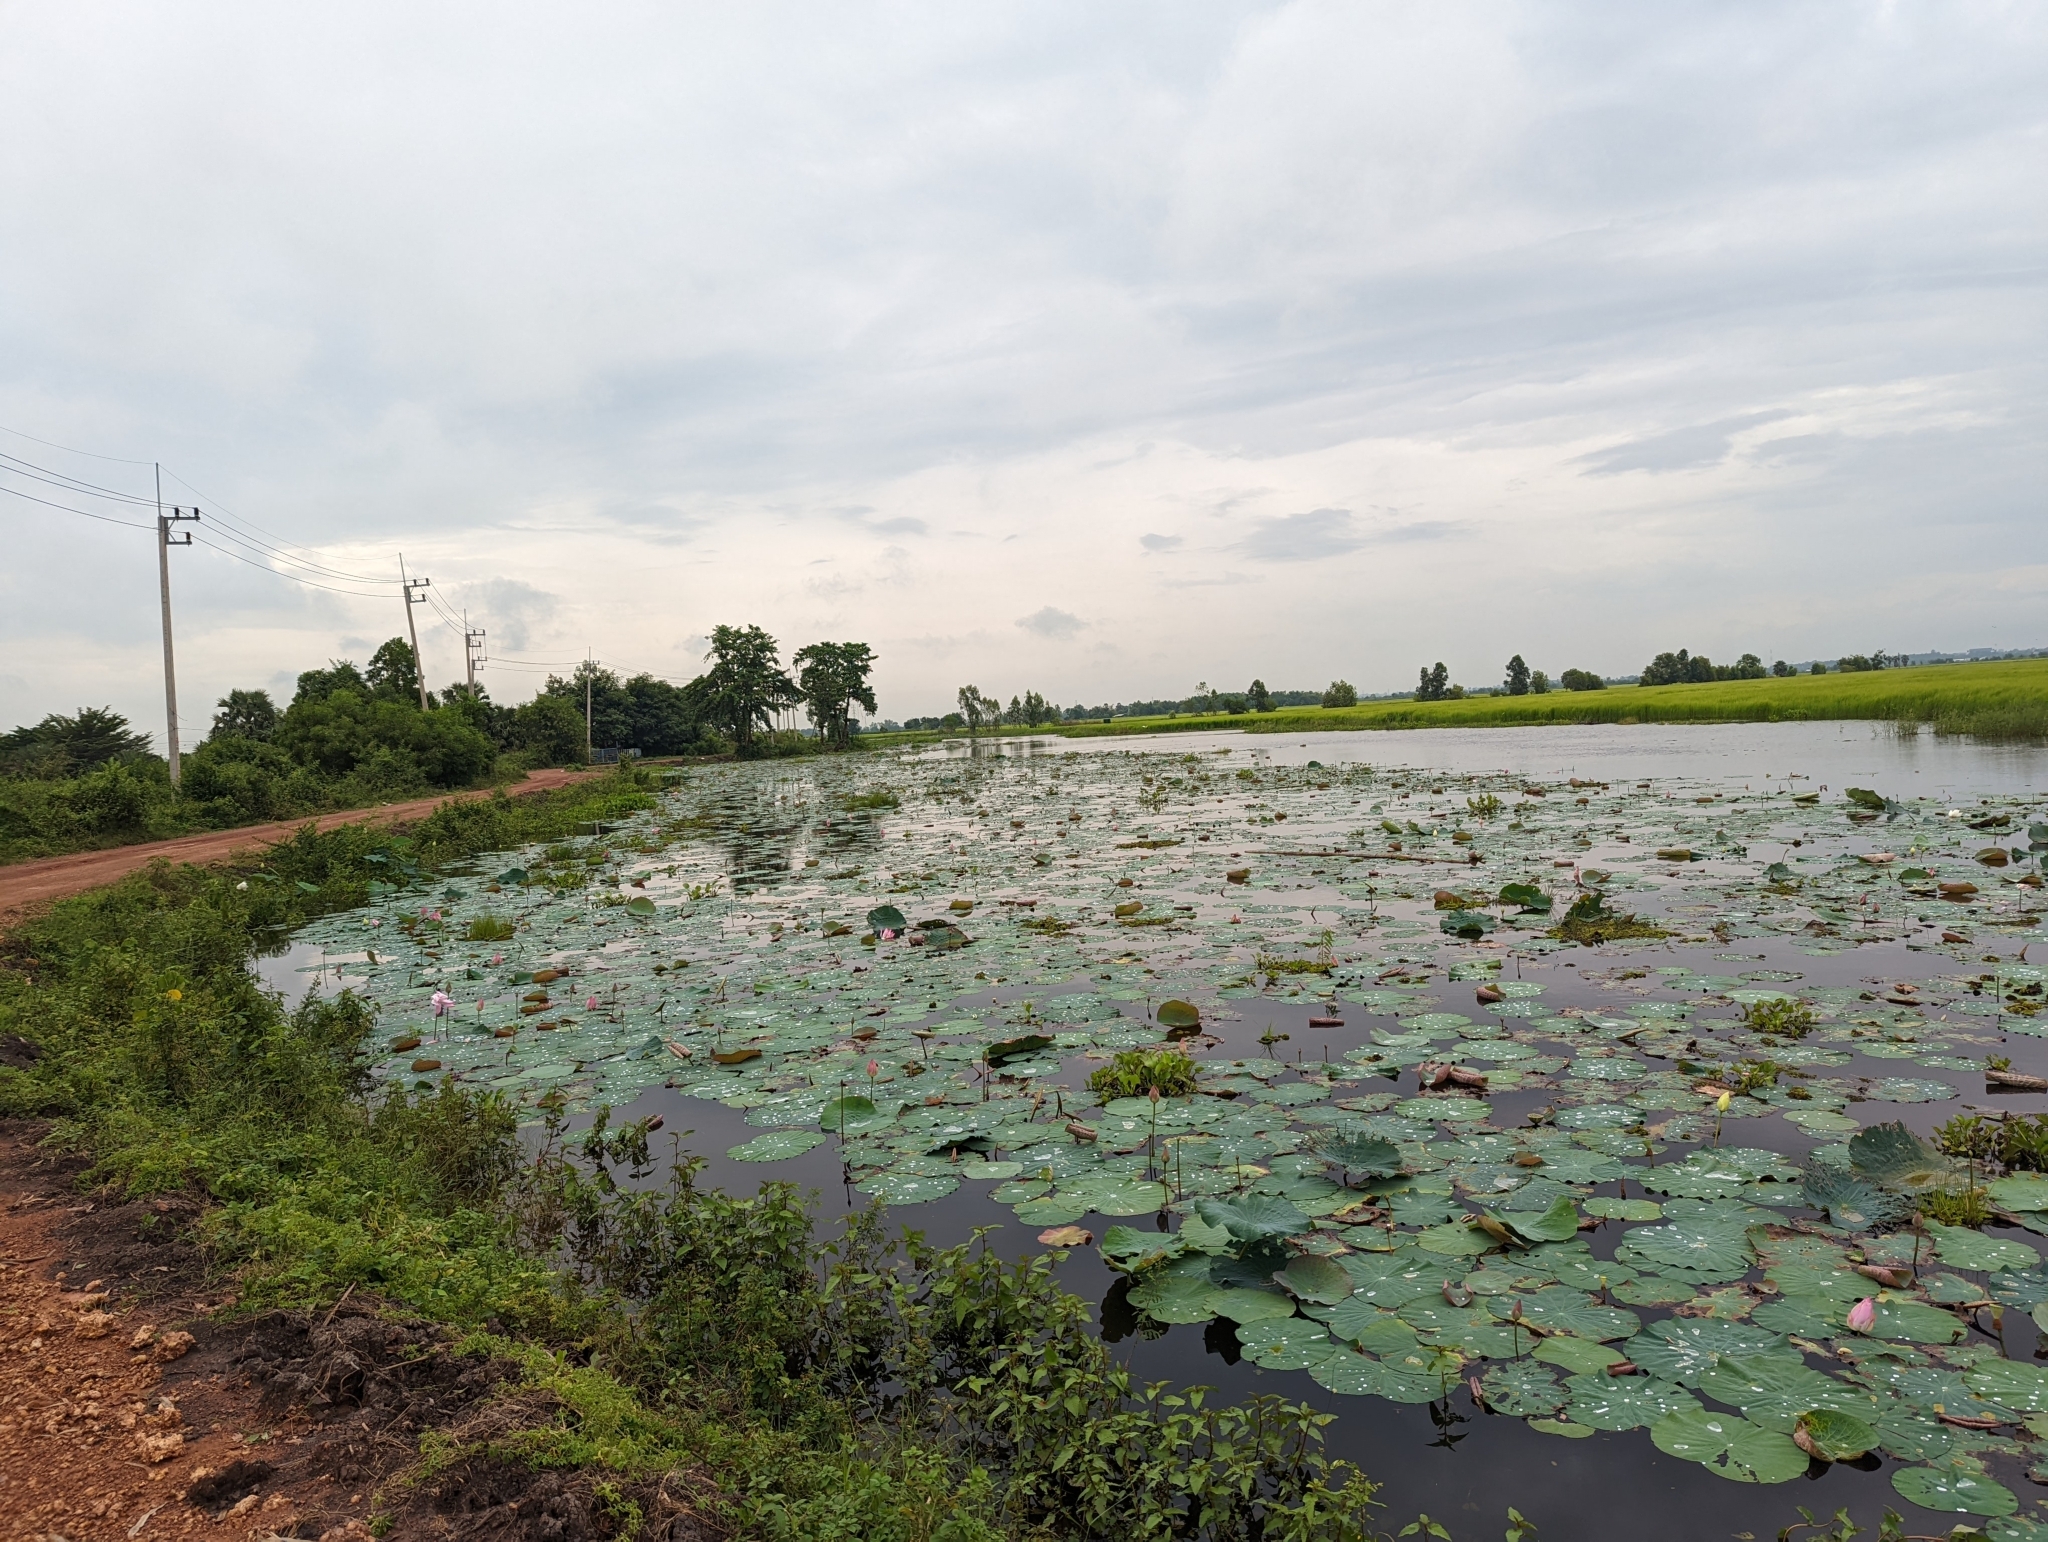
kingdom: Plantae
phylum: Tracheophyta
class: Magnoliopsida
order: Proteales
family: Nelumbonaceae
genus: Nelumbo
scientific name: Nelumbo nucifera
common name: Sacred lotus
